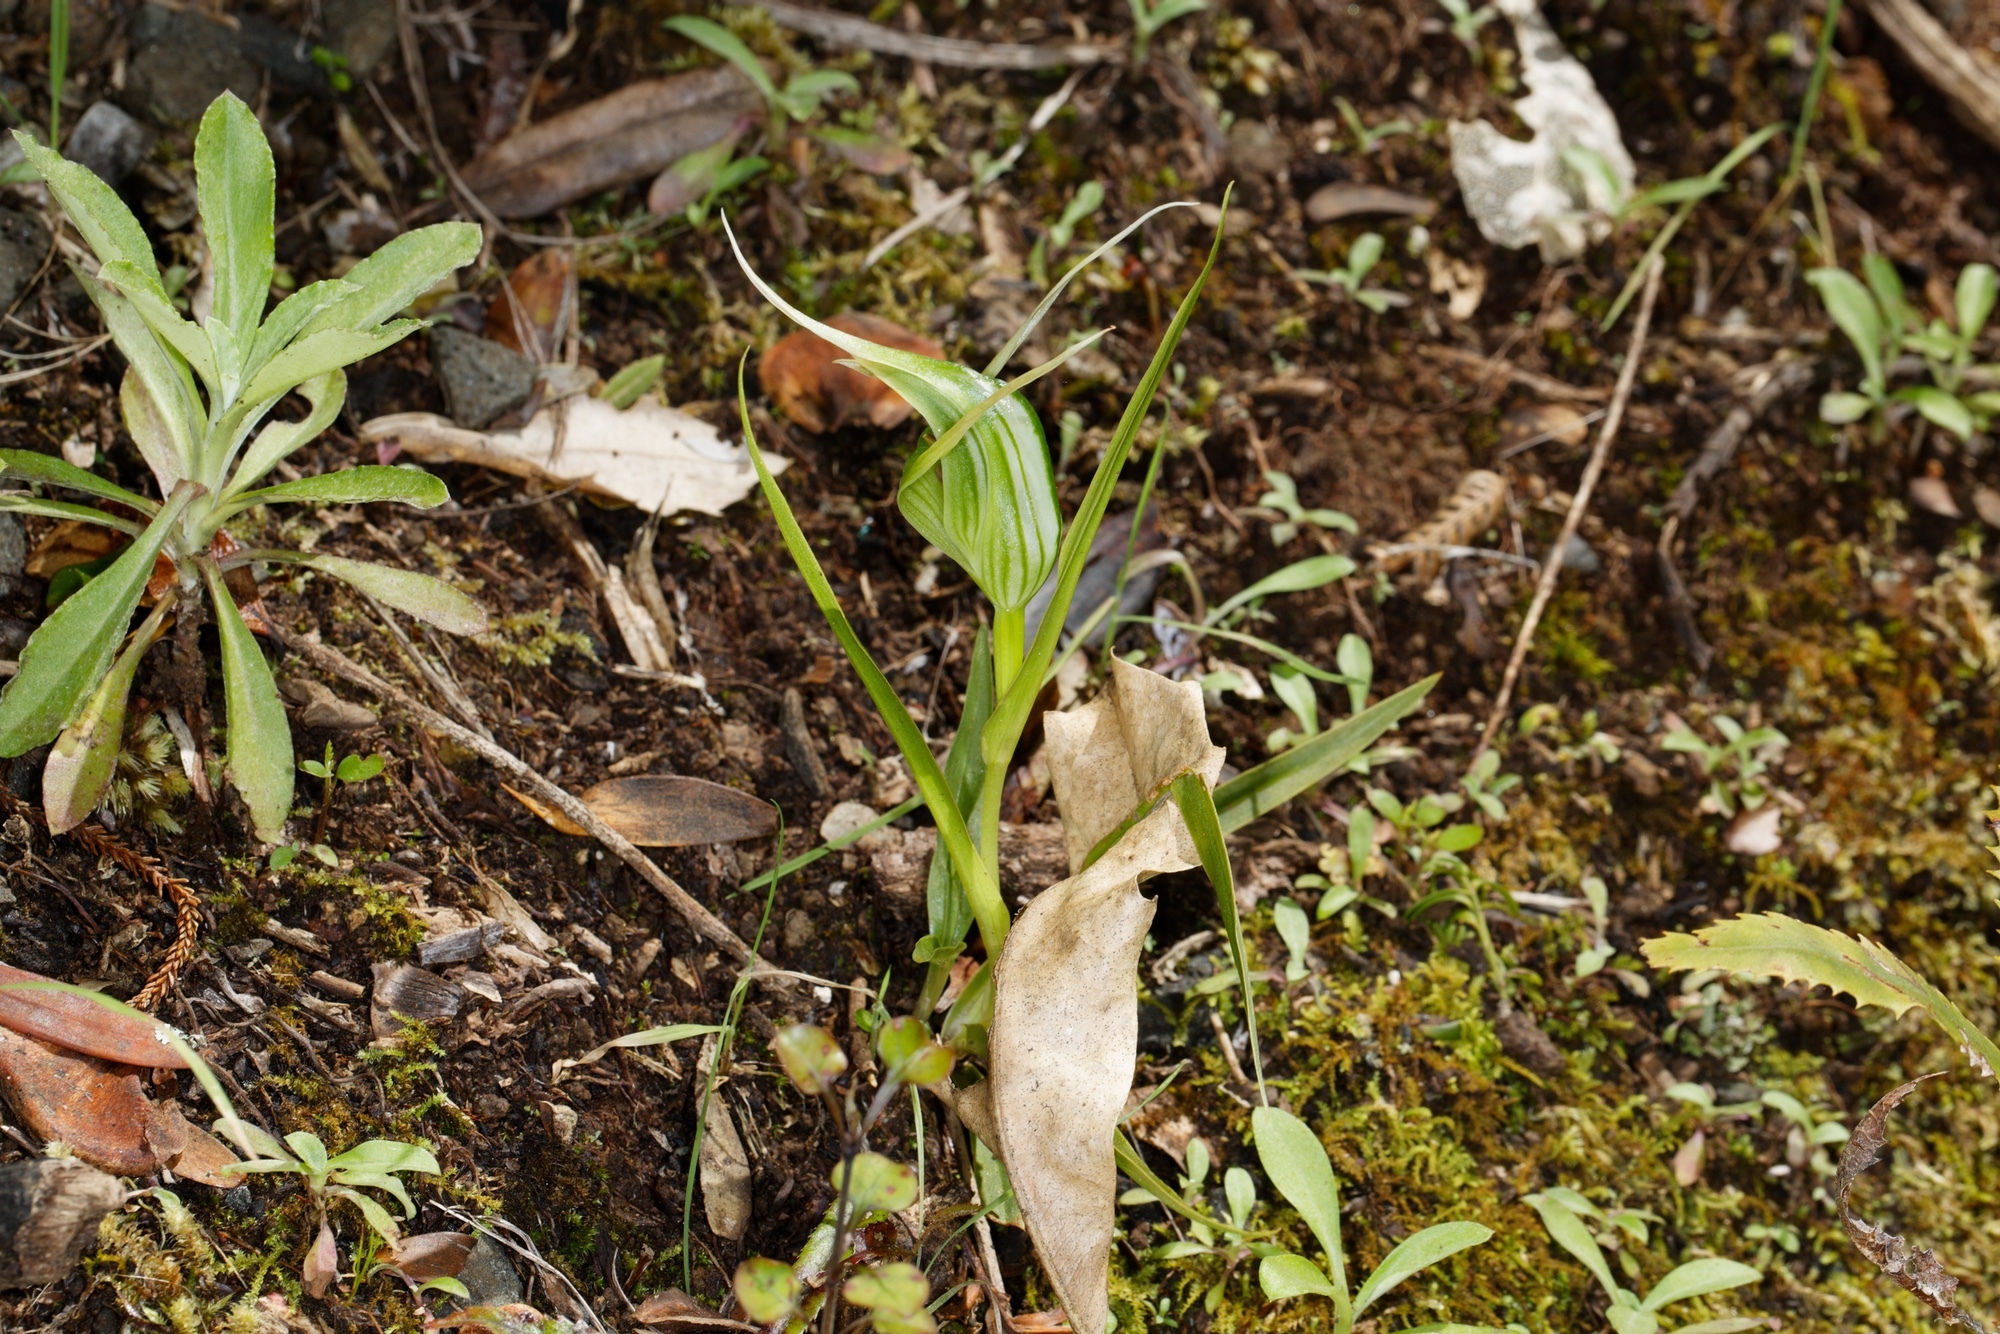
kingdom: Plantae
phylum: Tracheophyta
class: Liliopsida
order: Asparagales
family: Orchidaceae
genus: Pterostylis
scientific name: Pterostylis banksii
